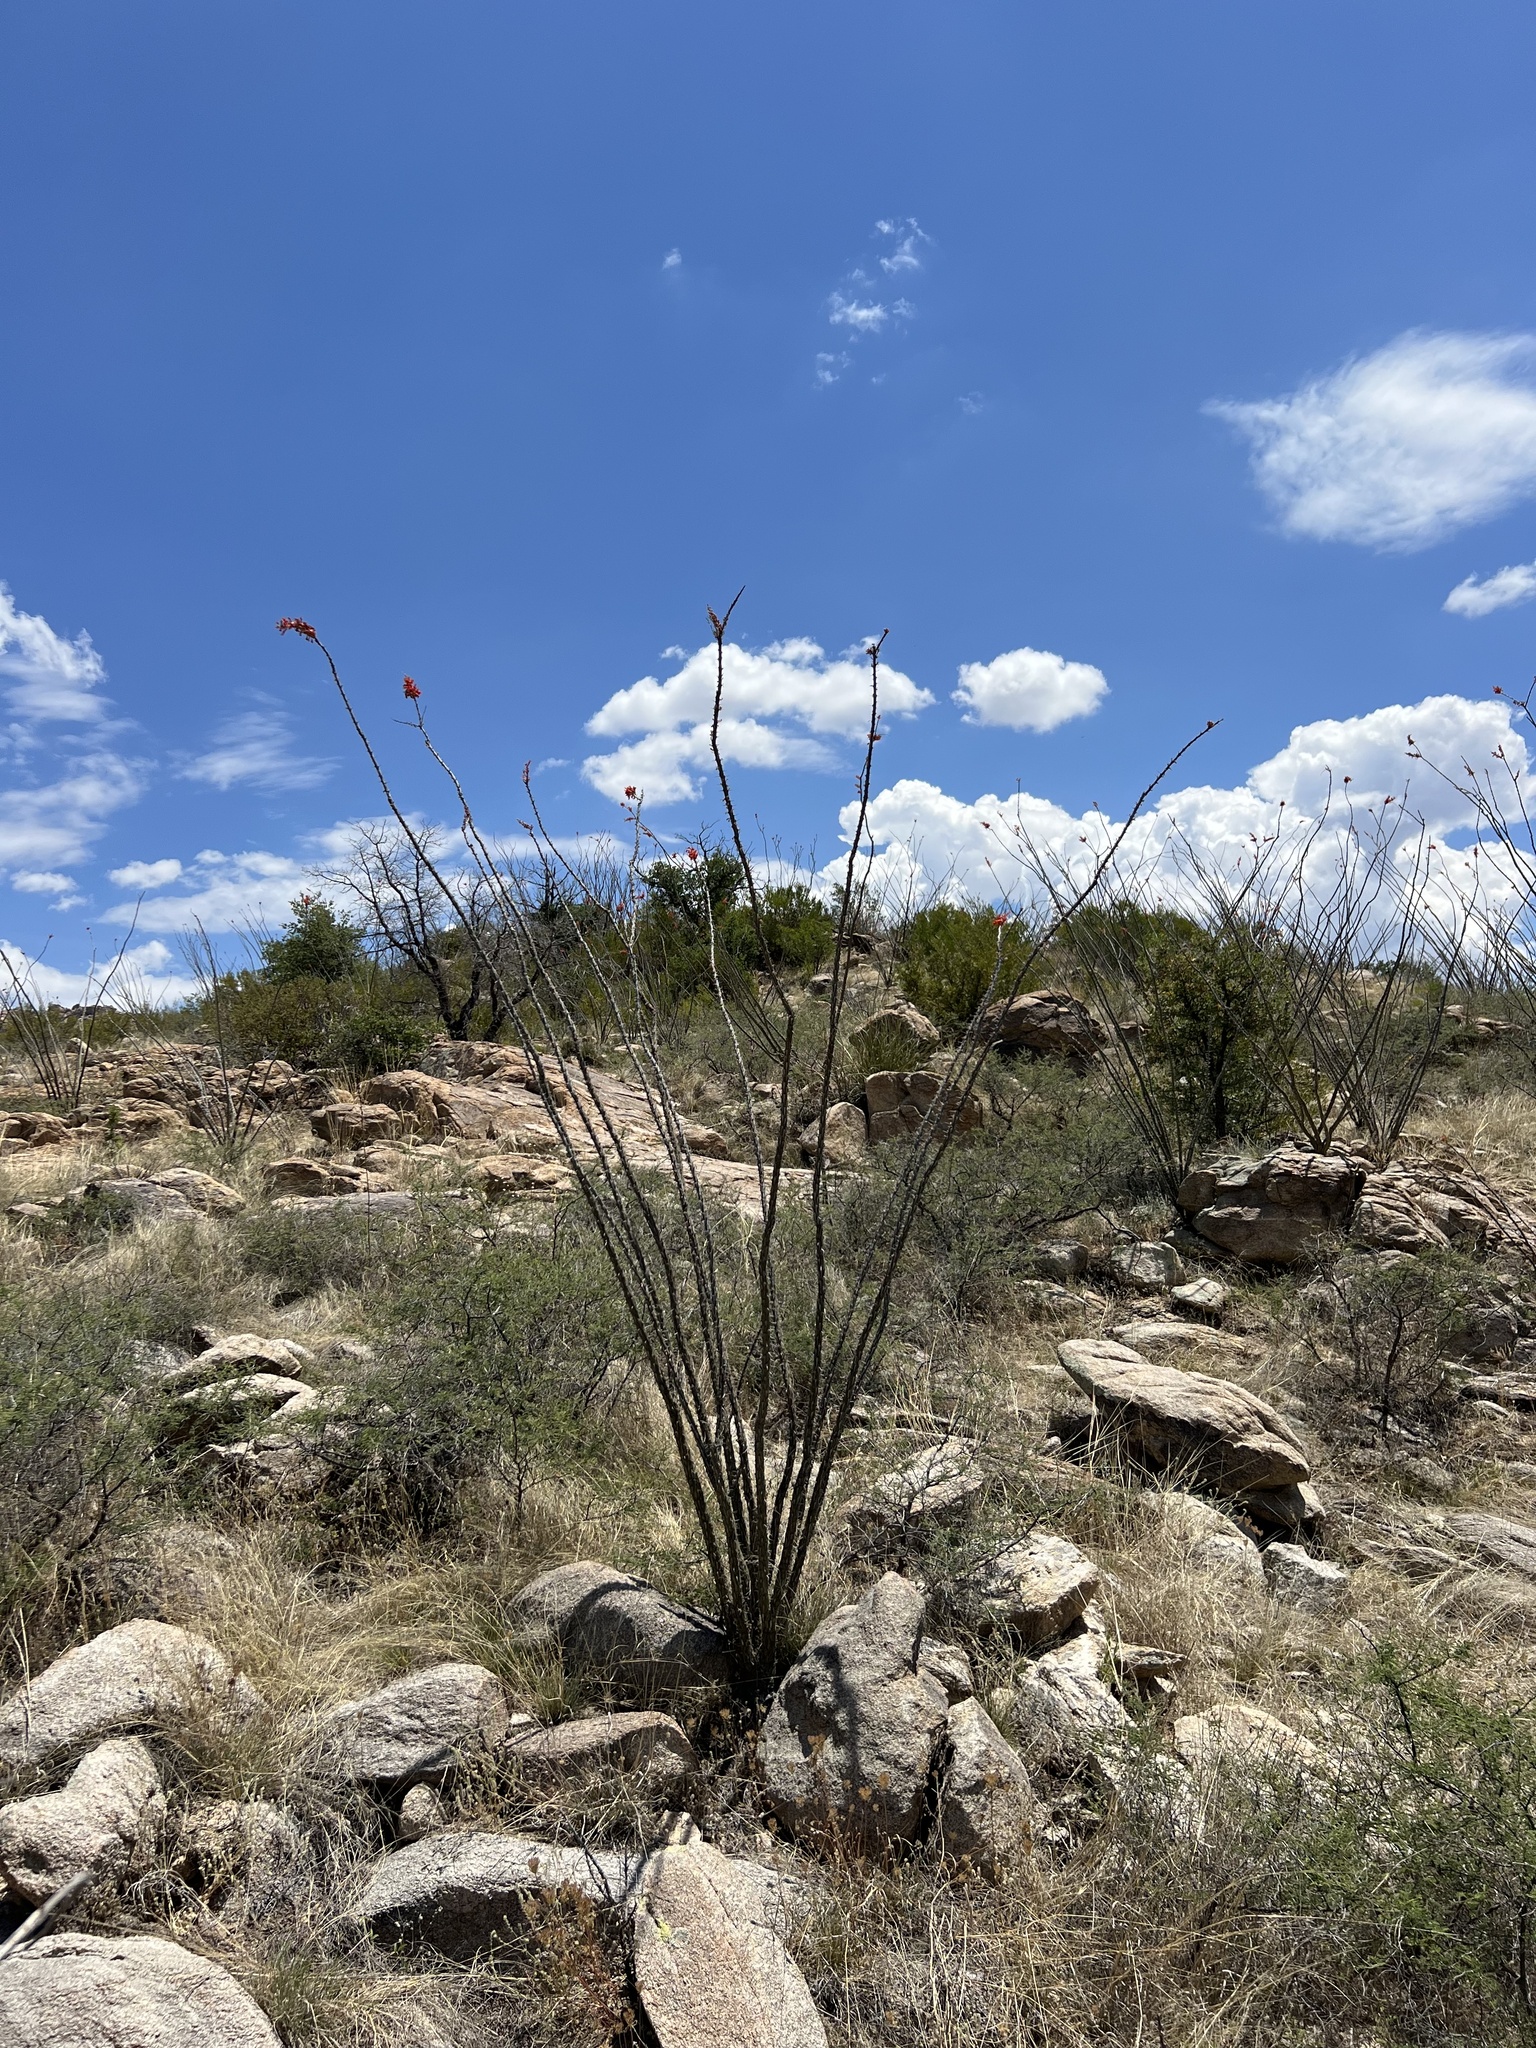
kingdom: Plantae
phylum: Tracheophyta
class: Magnoliopsida
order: Ericales
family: Fouquieriaceae
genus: Fouquieria
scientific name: Fouquieria splendens
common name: Vine-cactus
